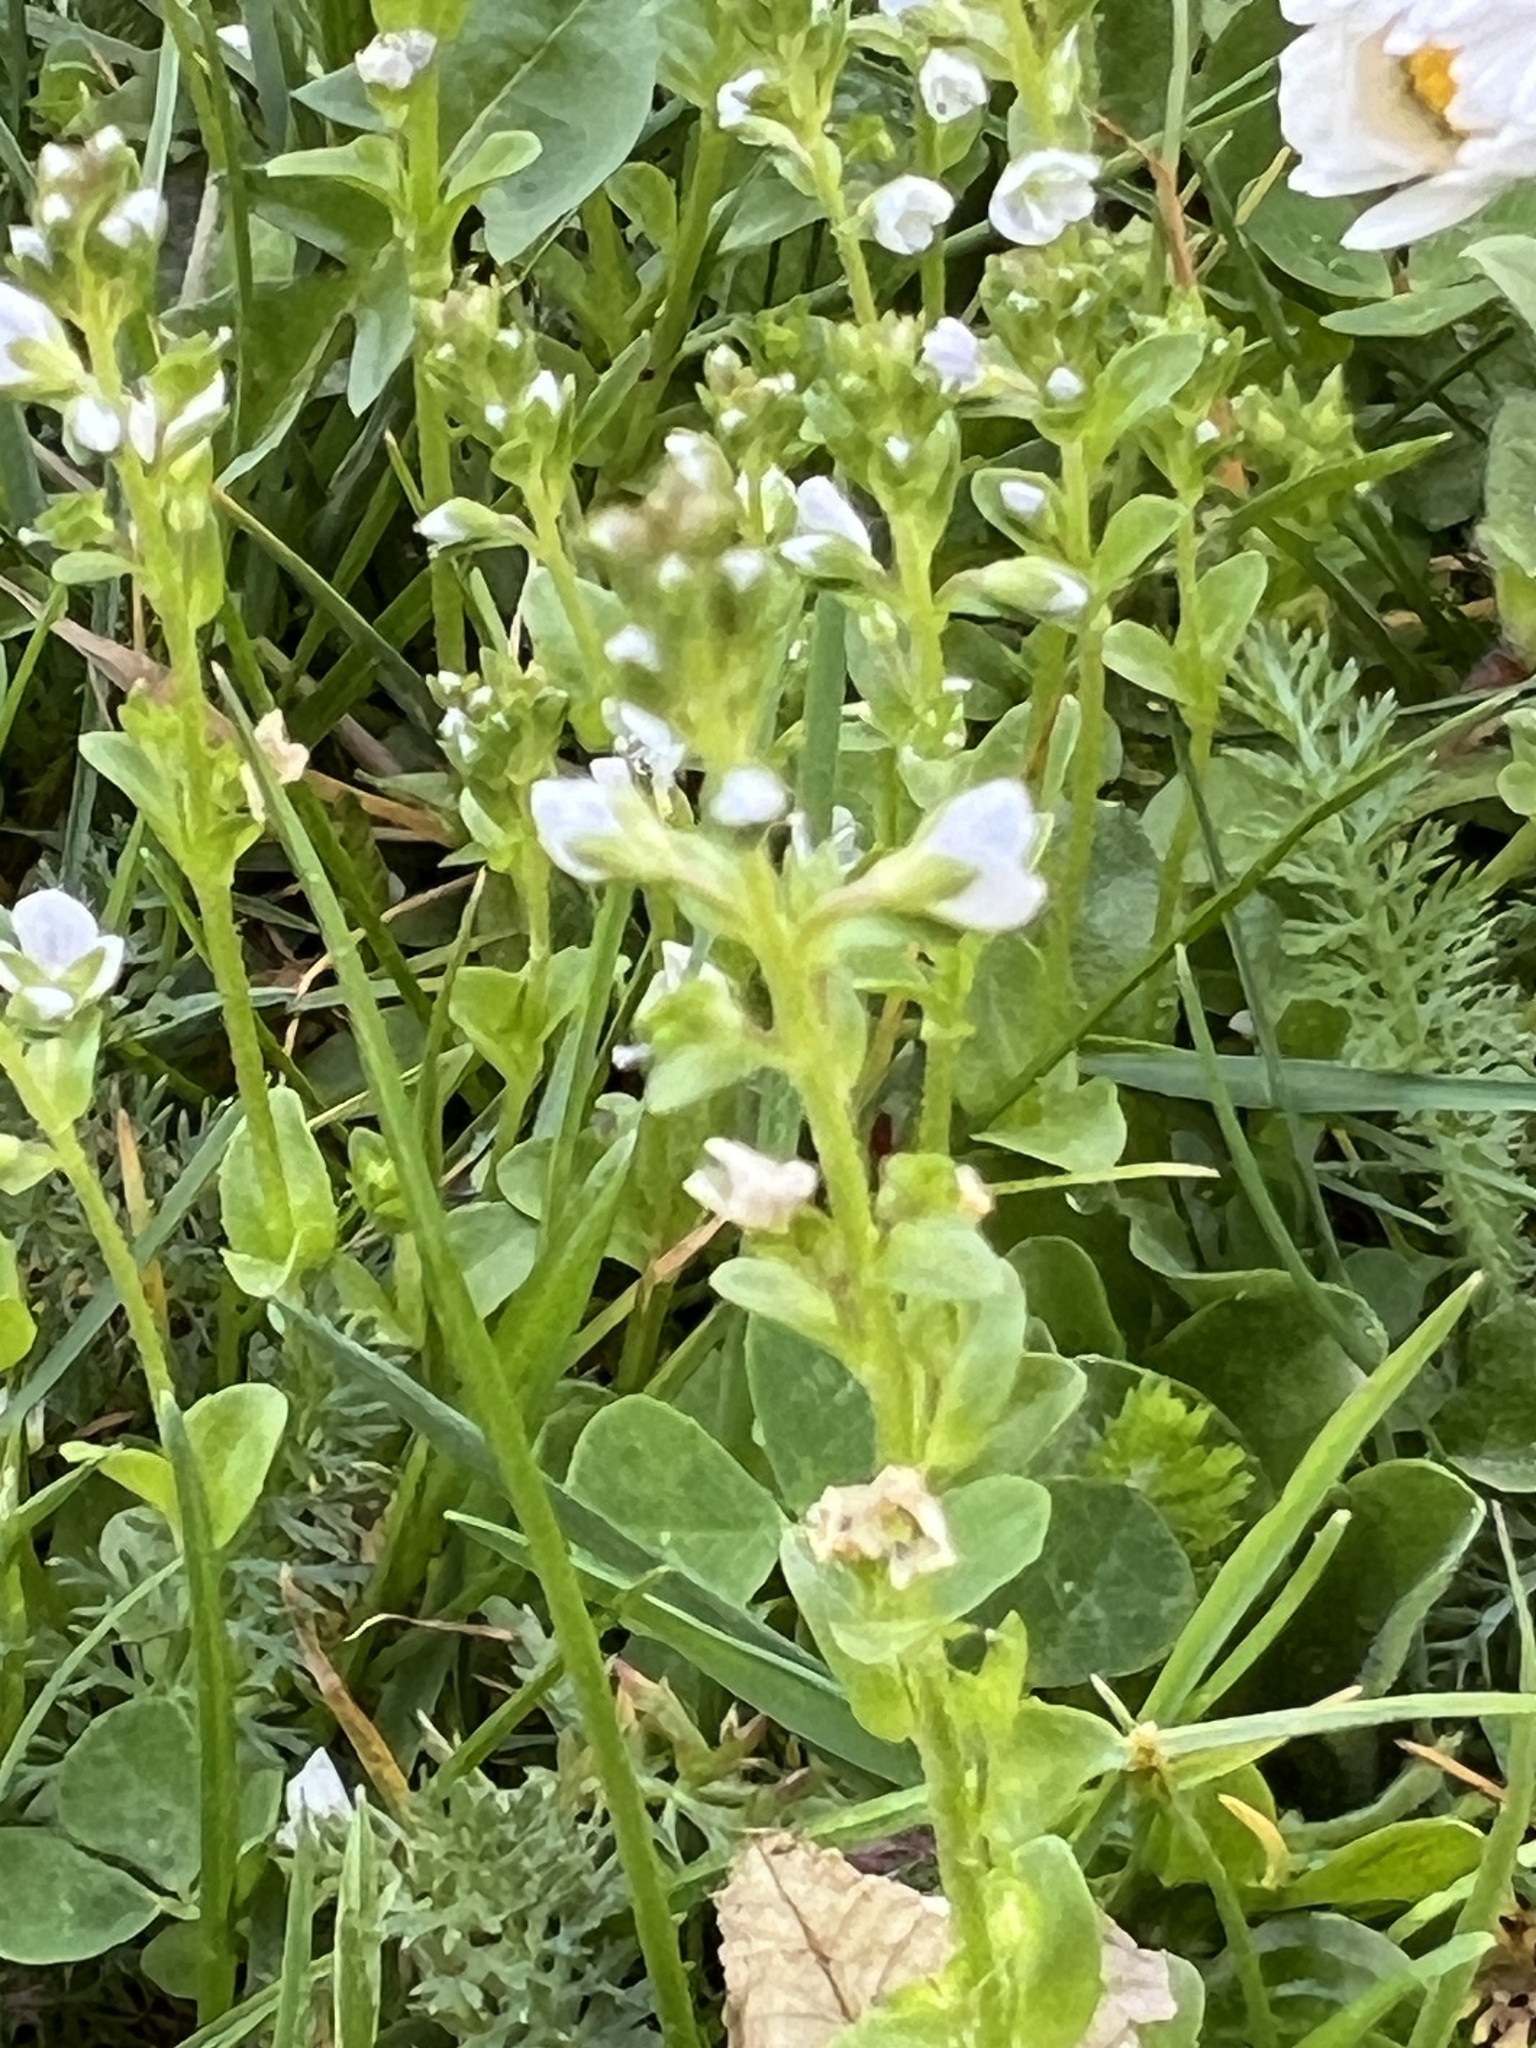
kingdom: Plantae
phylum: Tracheophyta
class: Magnoliopsida
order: Lamiales
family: Plantaginaceae
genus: Veronica
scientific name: Veronica serpyllifolia
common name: Thyme-leaved speedwell
